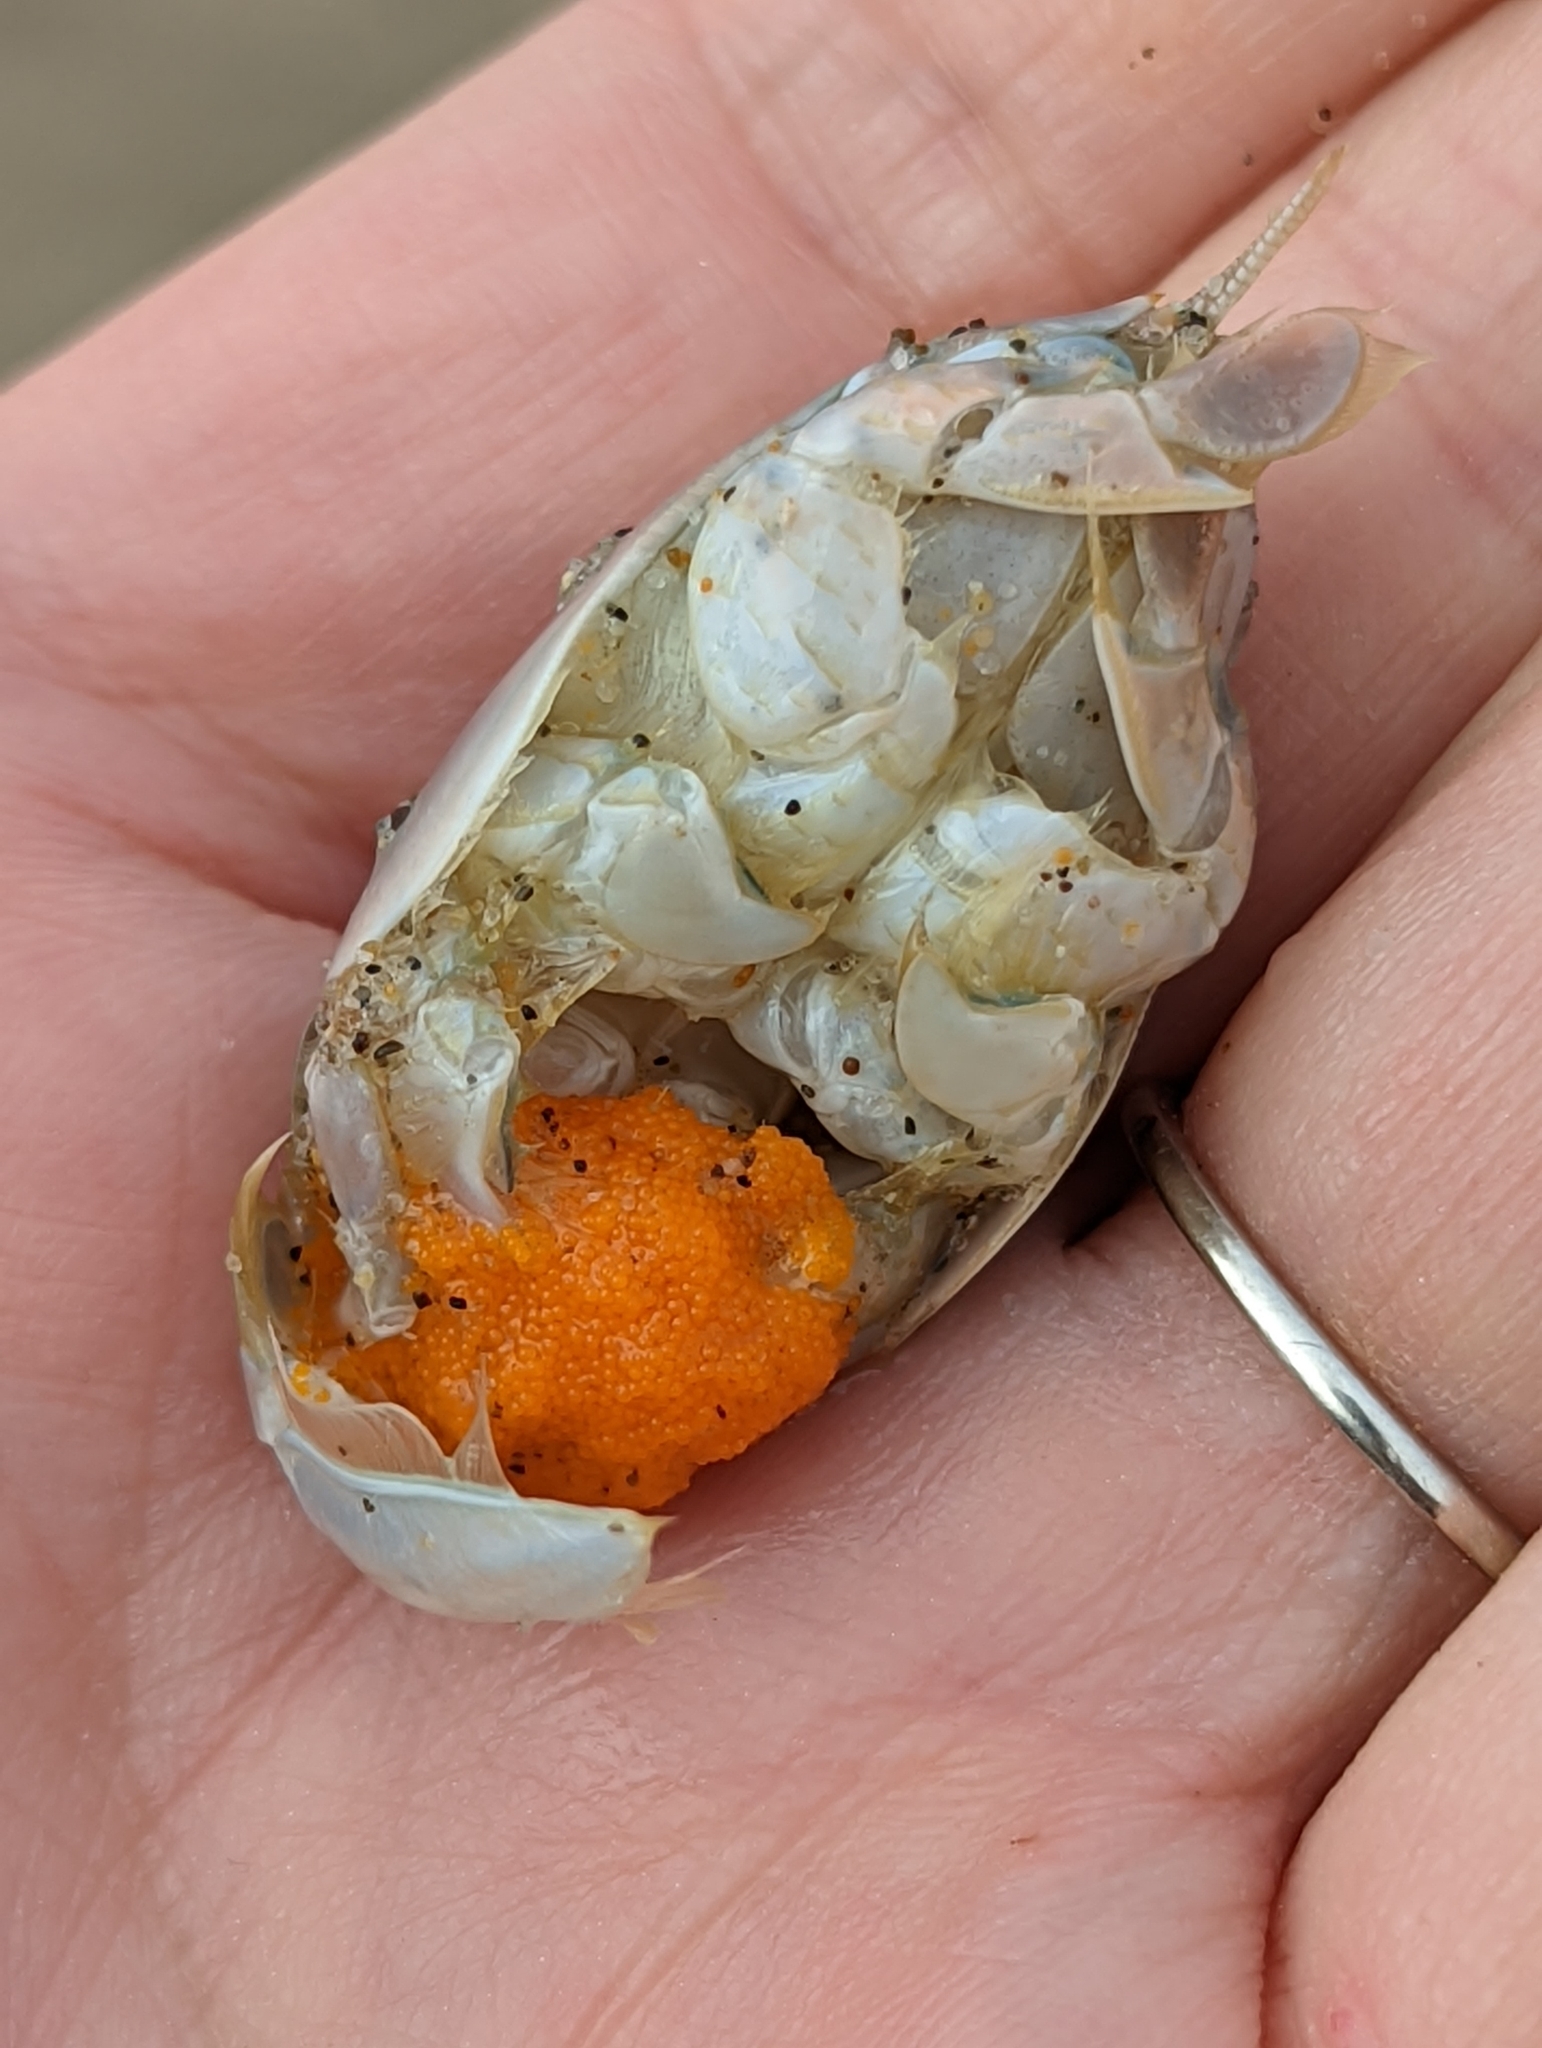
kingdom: Animalia
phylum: Arthropoda
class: Malacostraca
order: Decapoda
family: Hippidae
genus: Emerita
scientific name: Emerita analoga
